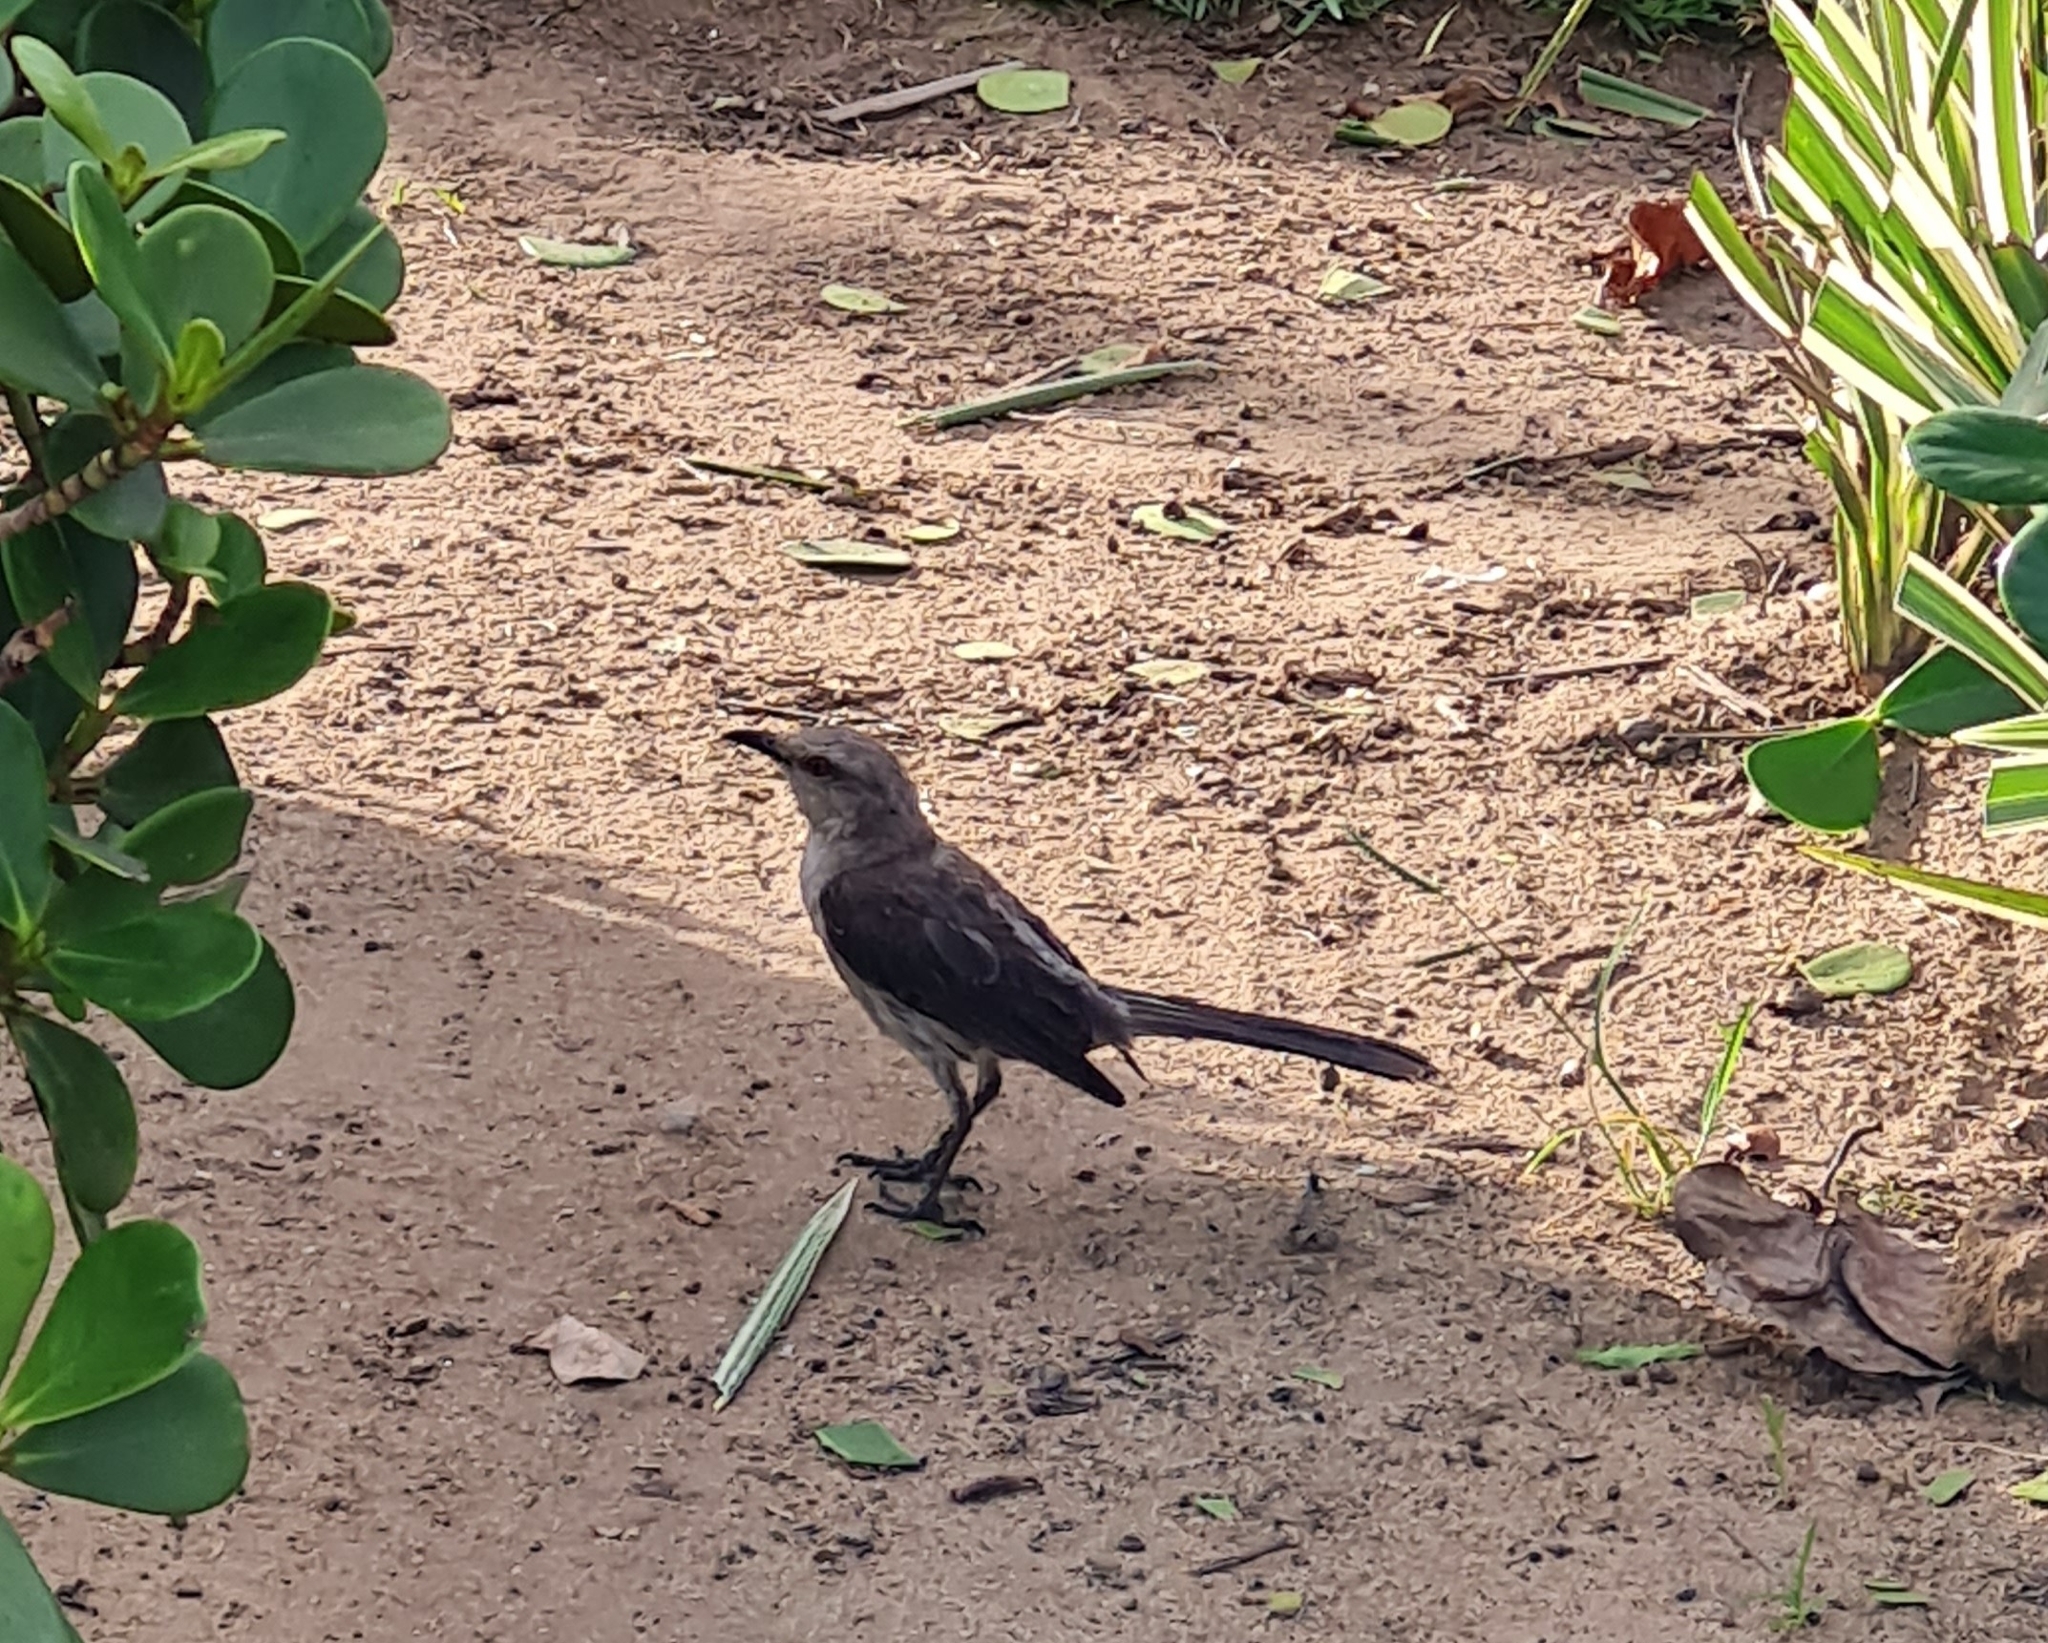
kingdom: Animalia
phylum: Chordata
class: Aves
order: Passeriformes
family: Mimidae
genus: Mimus
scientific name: Mimus gilvus
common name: Tropical mockingbird
